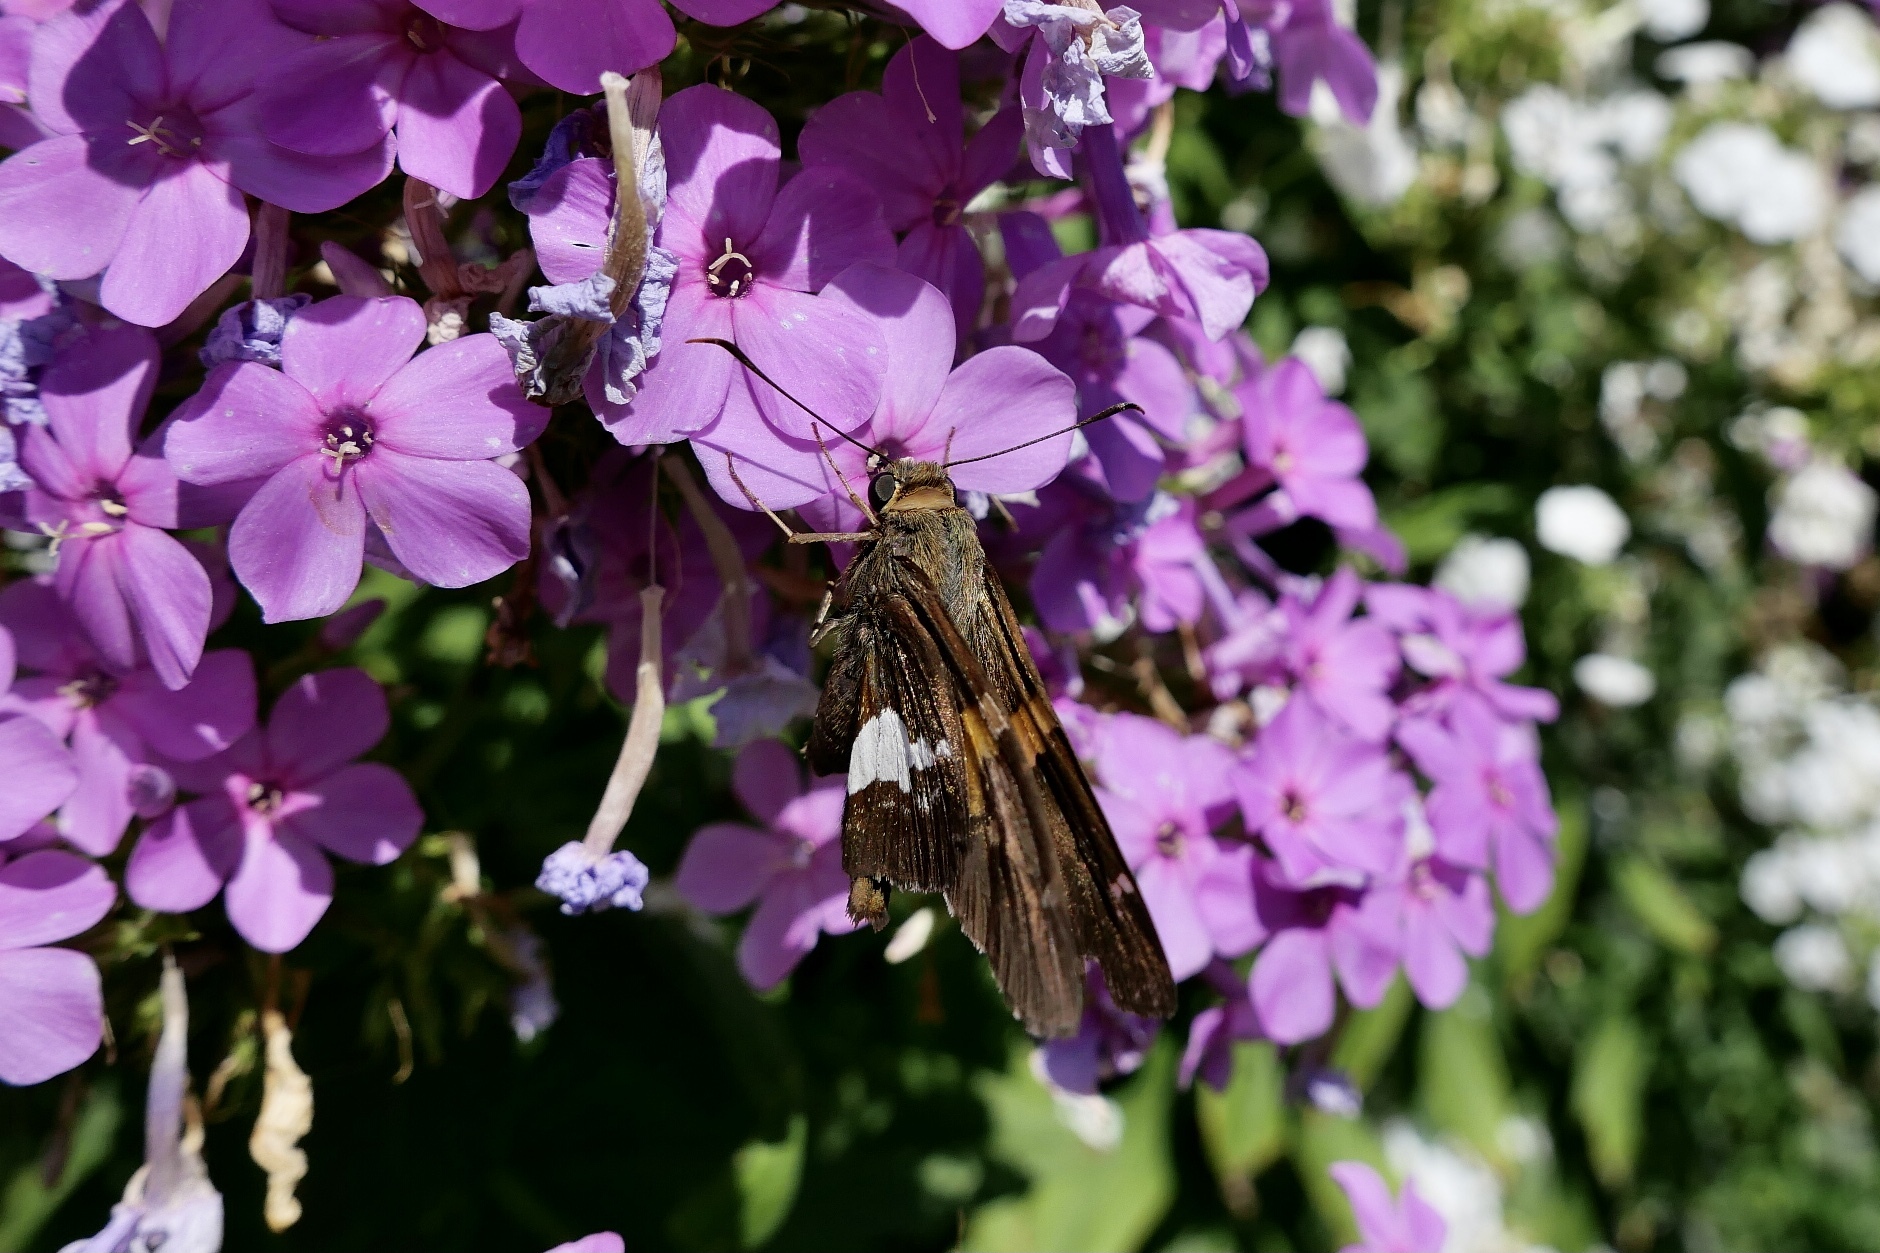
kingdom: Animalia
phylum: Arthropoda
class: Insecta
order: Lepidoptera
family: Hesperiidae
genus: Epargyreus
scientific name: Epargyreus clarus
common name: Silver-spotted skipper
